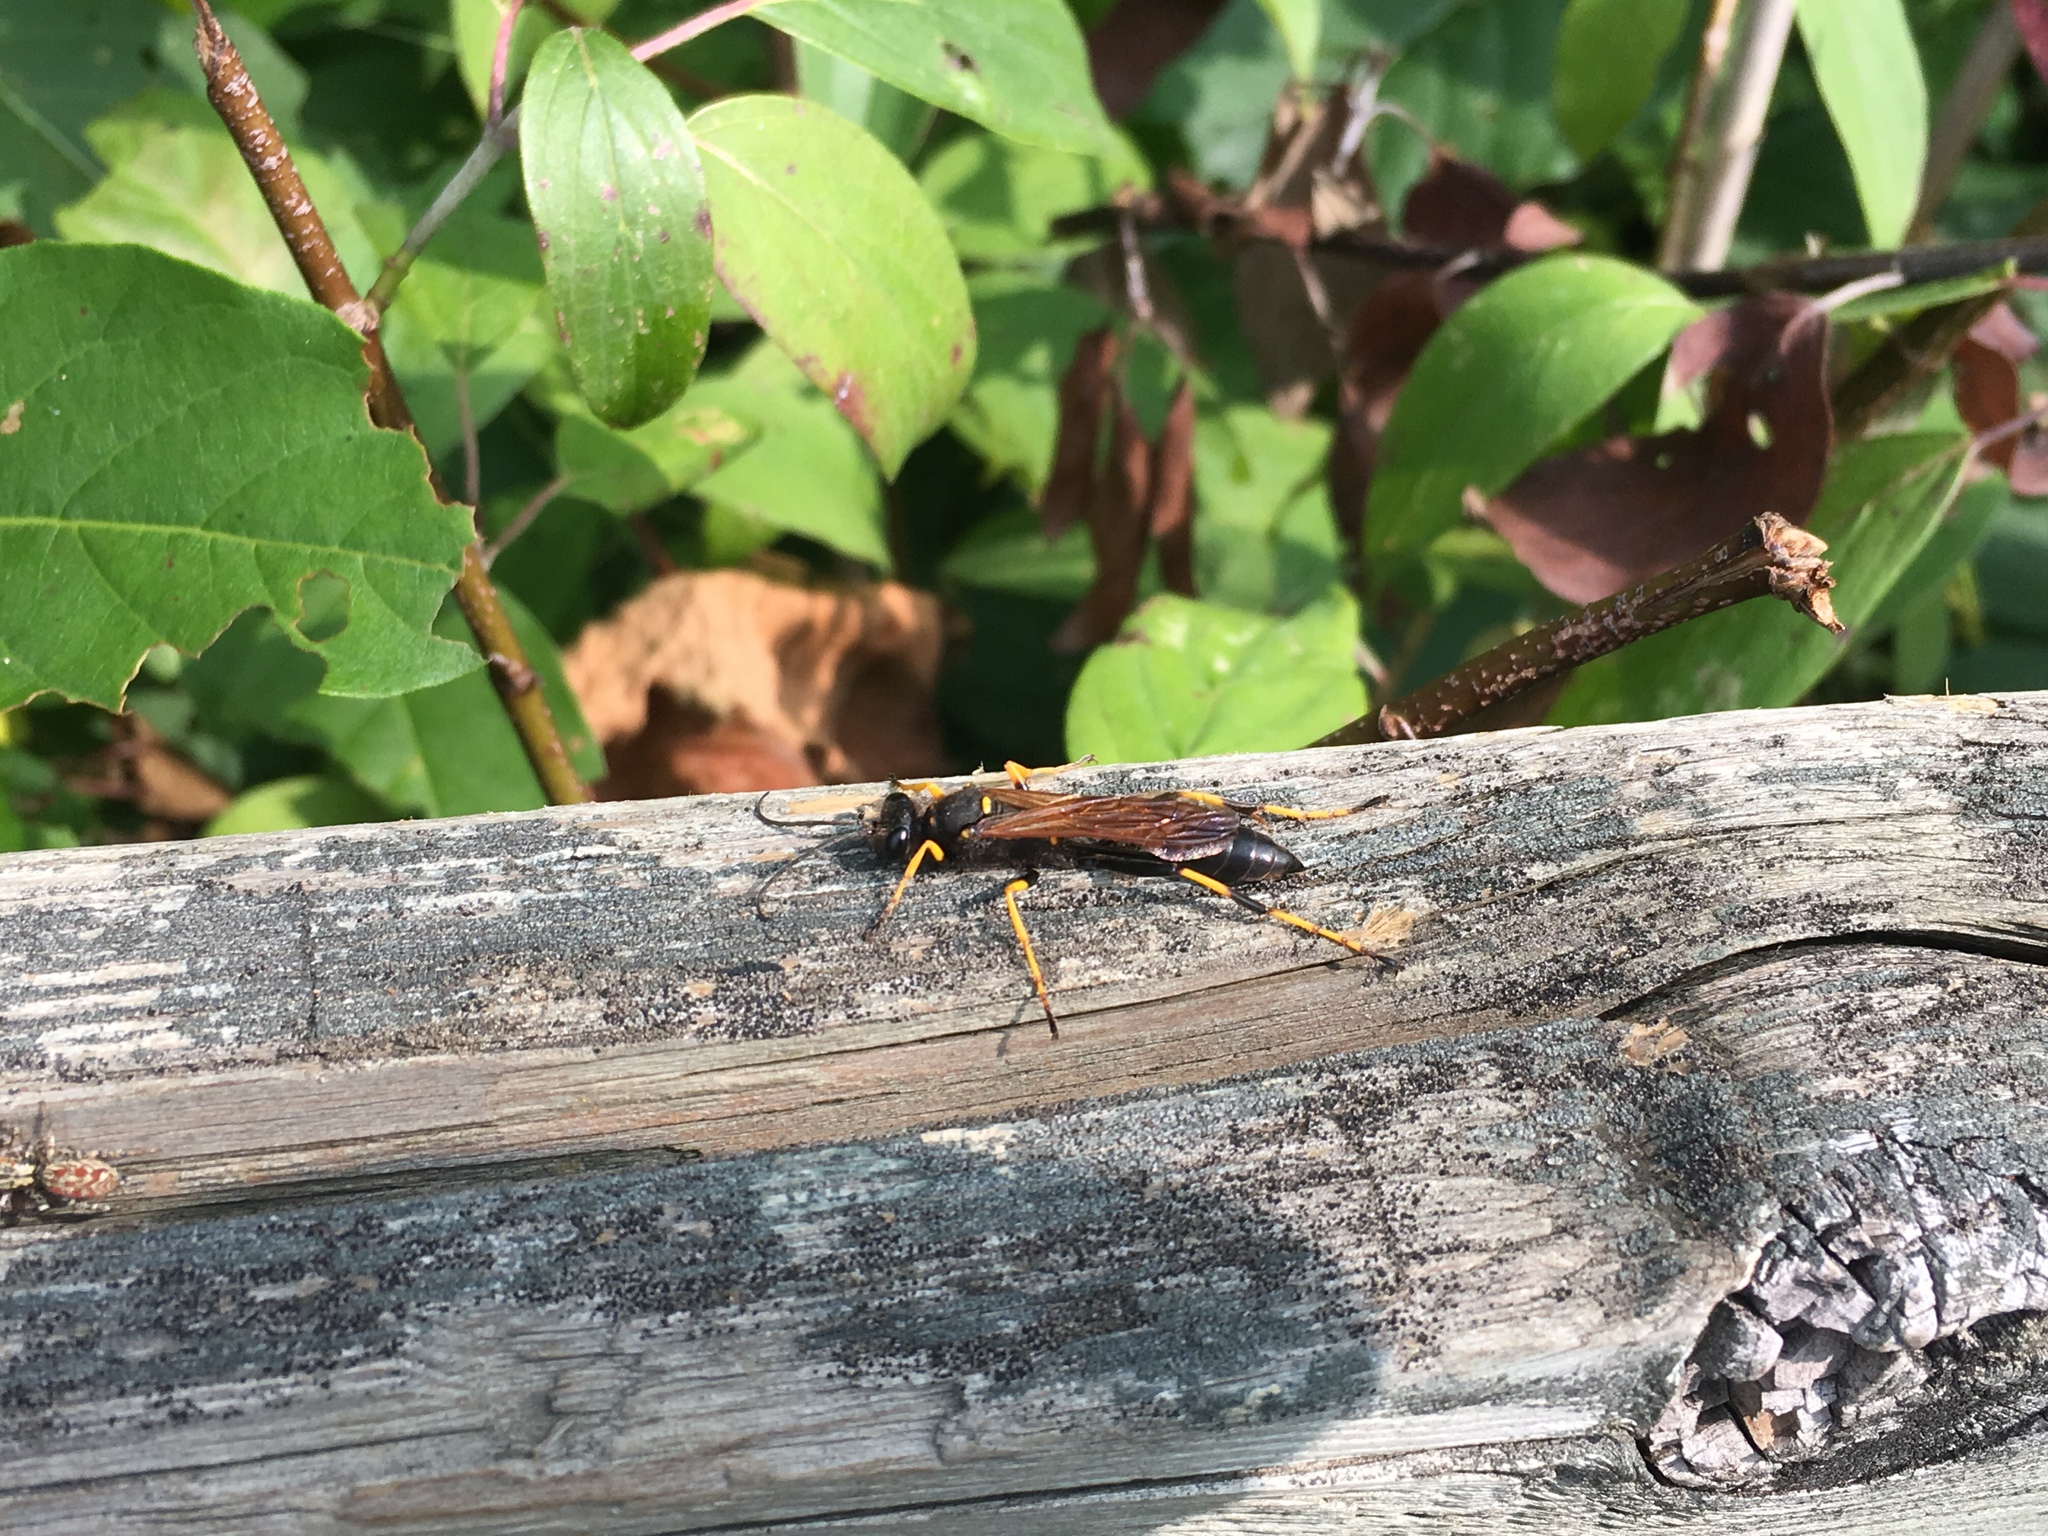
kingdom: Animalia
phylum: Arthropoda
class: Insecta
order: Hymenoptera
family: Sphecidae
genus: Sceliphron
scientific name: Sceliphron caementarium
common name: Mud dauber
